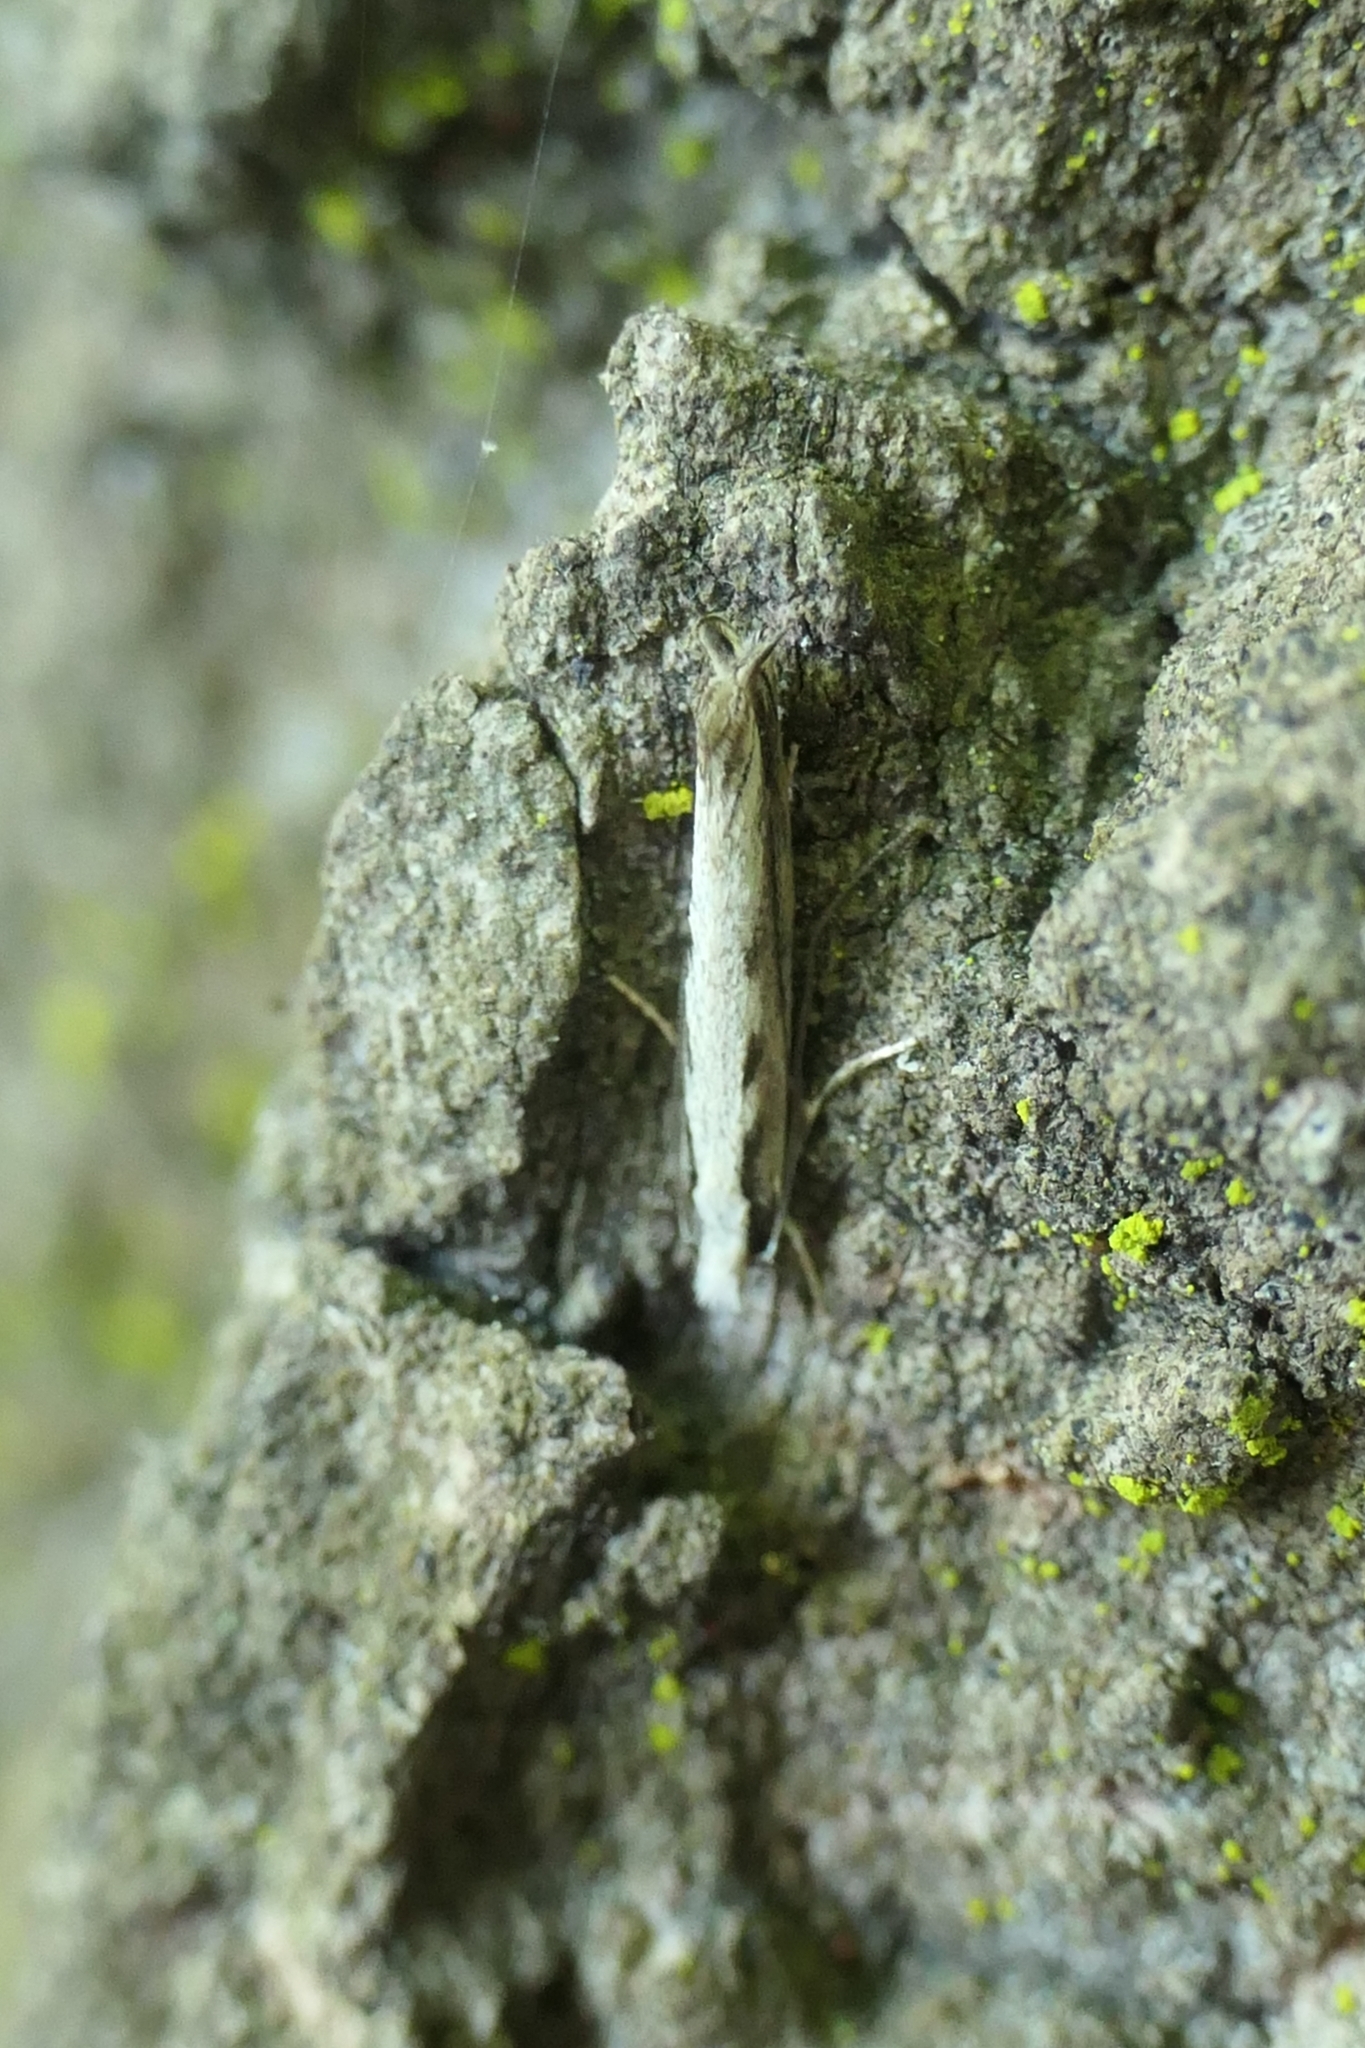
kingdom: Animalia
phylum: Arthropoda
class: Insecta
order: Lepidoptera
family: Tineidae
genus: Erechthias
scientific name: Erechthias fulguritella
